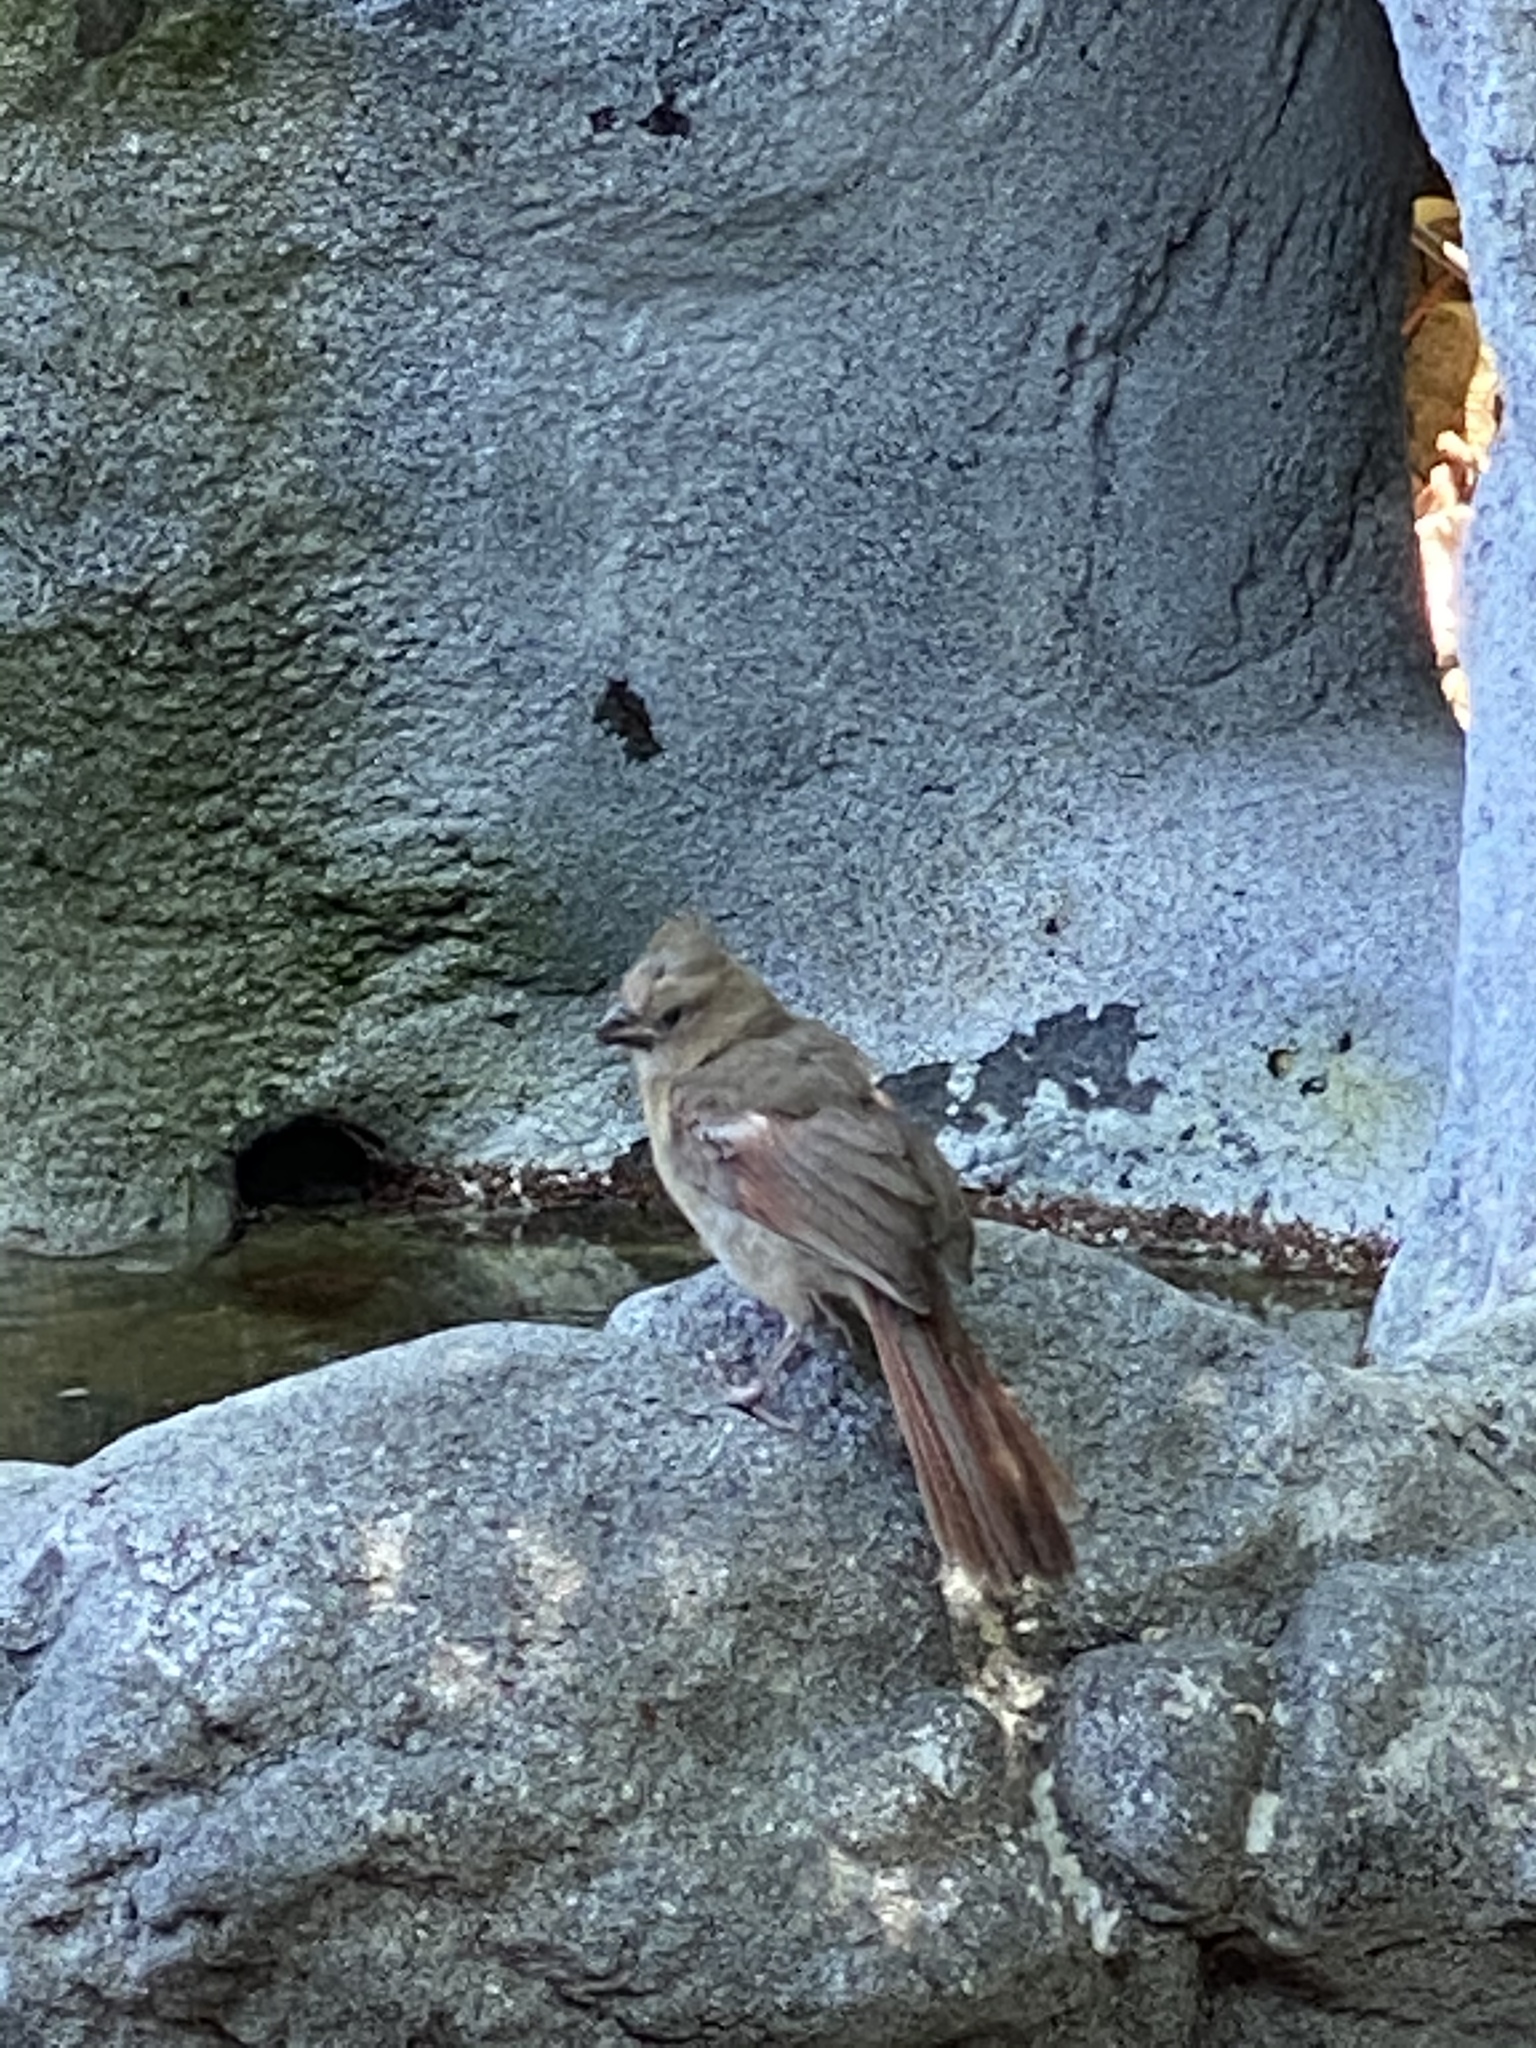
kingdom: Animalia
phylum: Chordata
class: Aves
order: Passeriformes
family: Cardinalidae
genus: Cardinalis
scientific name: Cardinalis cardinalis
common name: Northern cardinal
